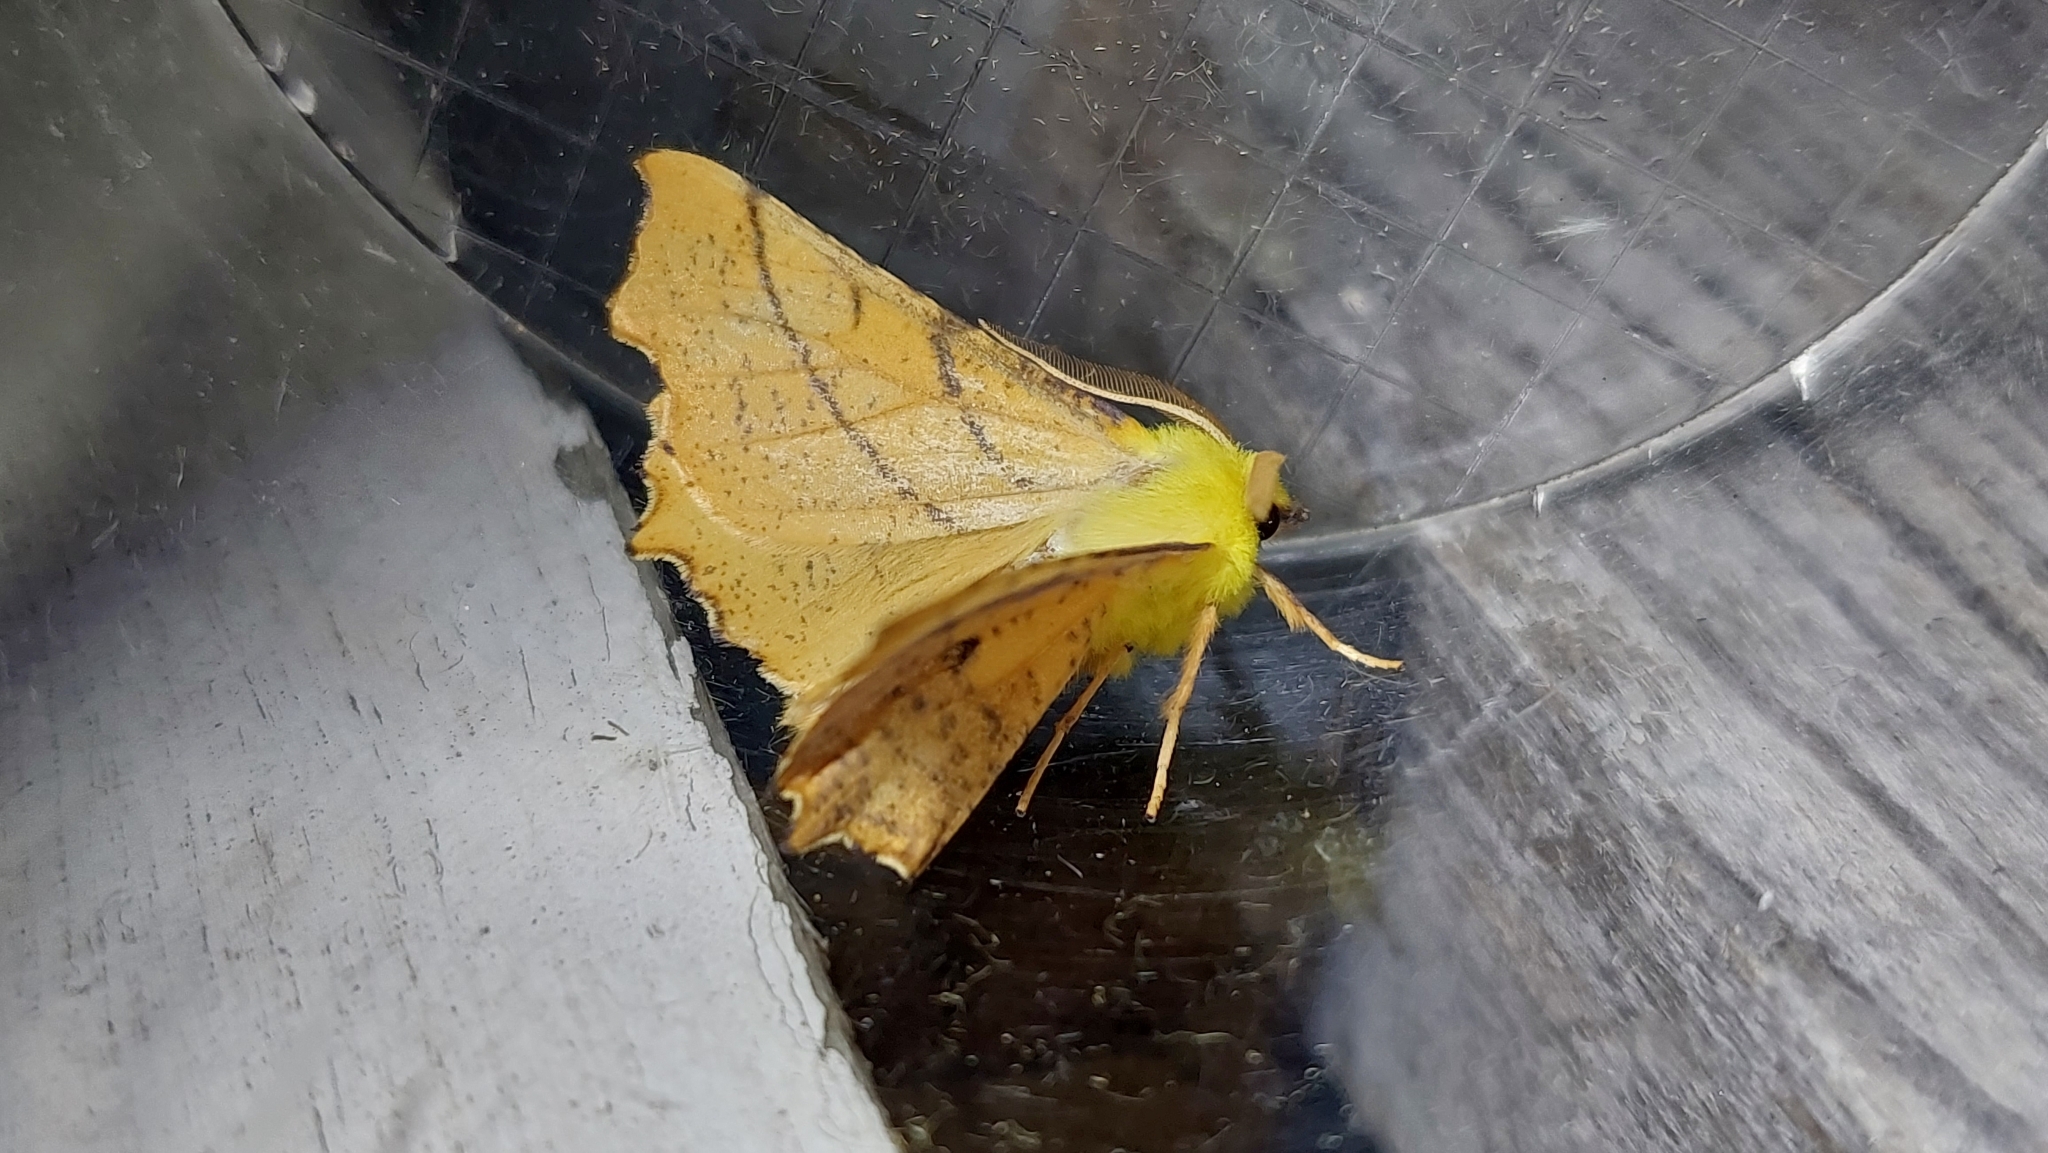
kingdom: Animalia
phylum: Arthropoda
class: Insecta
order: Lepidoptera
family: Geometridae
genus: Ennomos
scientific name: Ennomos alniaria
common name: Canary-shouldered thorn
